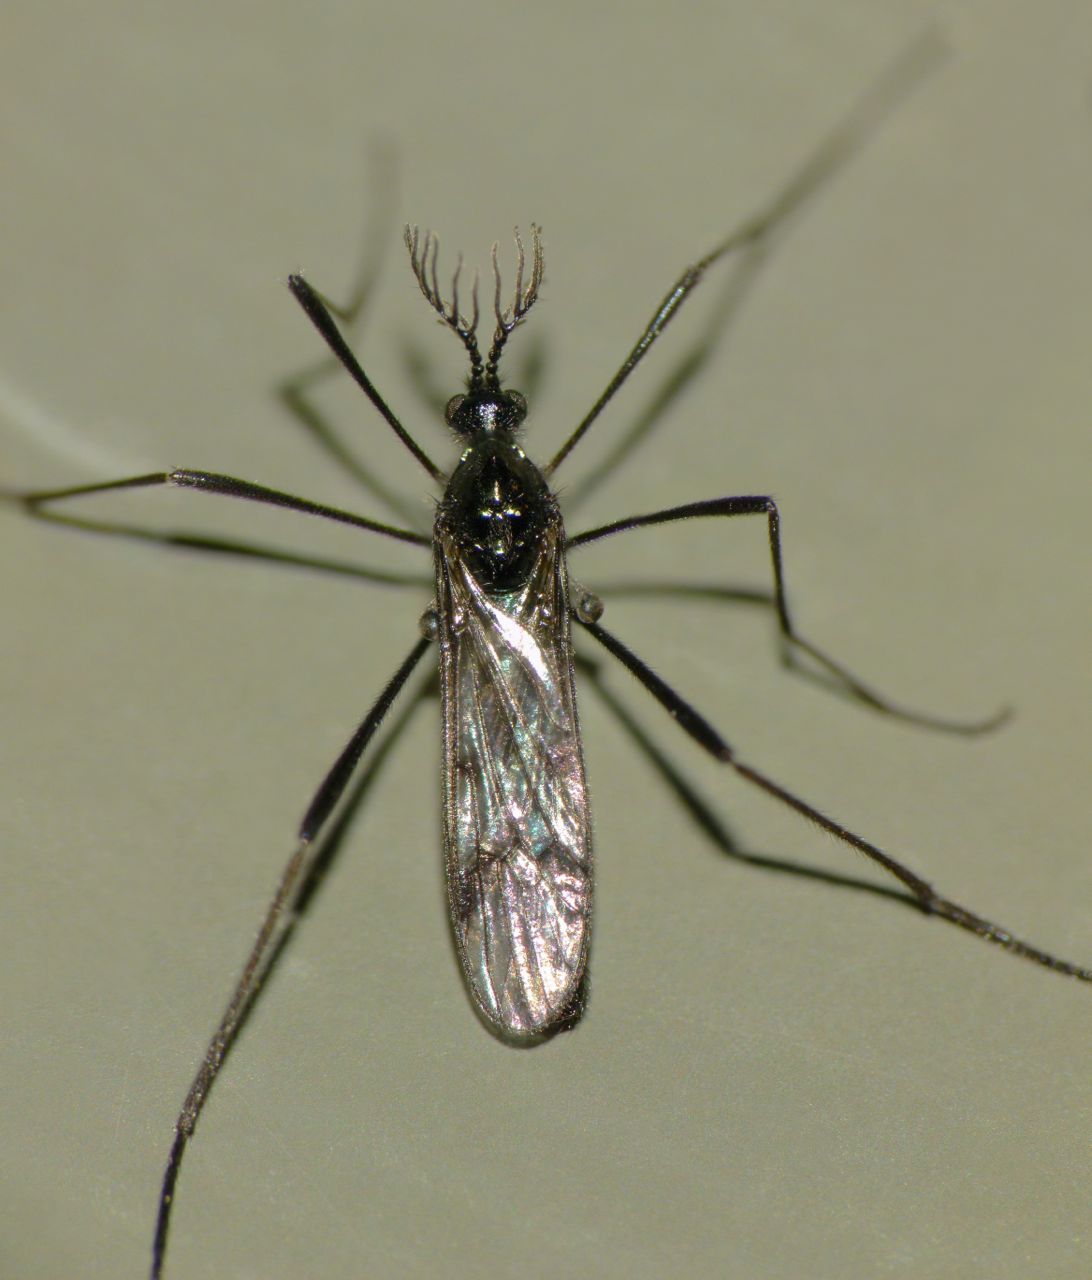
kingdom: Animalia
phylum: Arthropoda
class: Insecta
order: Diptera
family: Limoniidae
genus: Gynoplistia
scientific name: Gynoplistia campbelli
